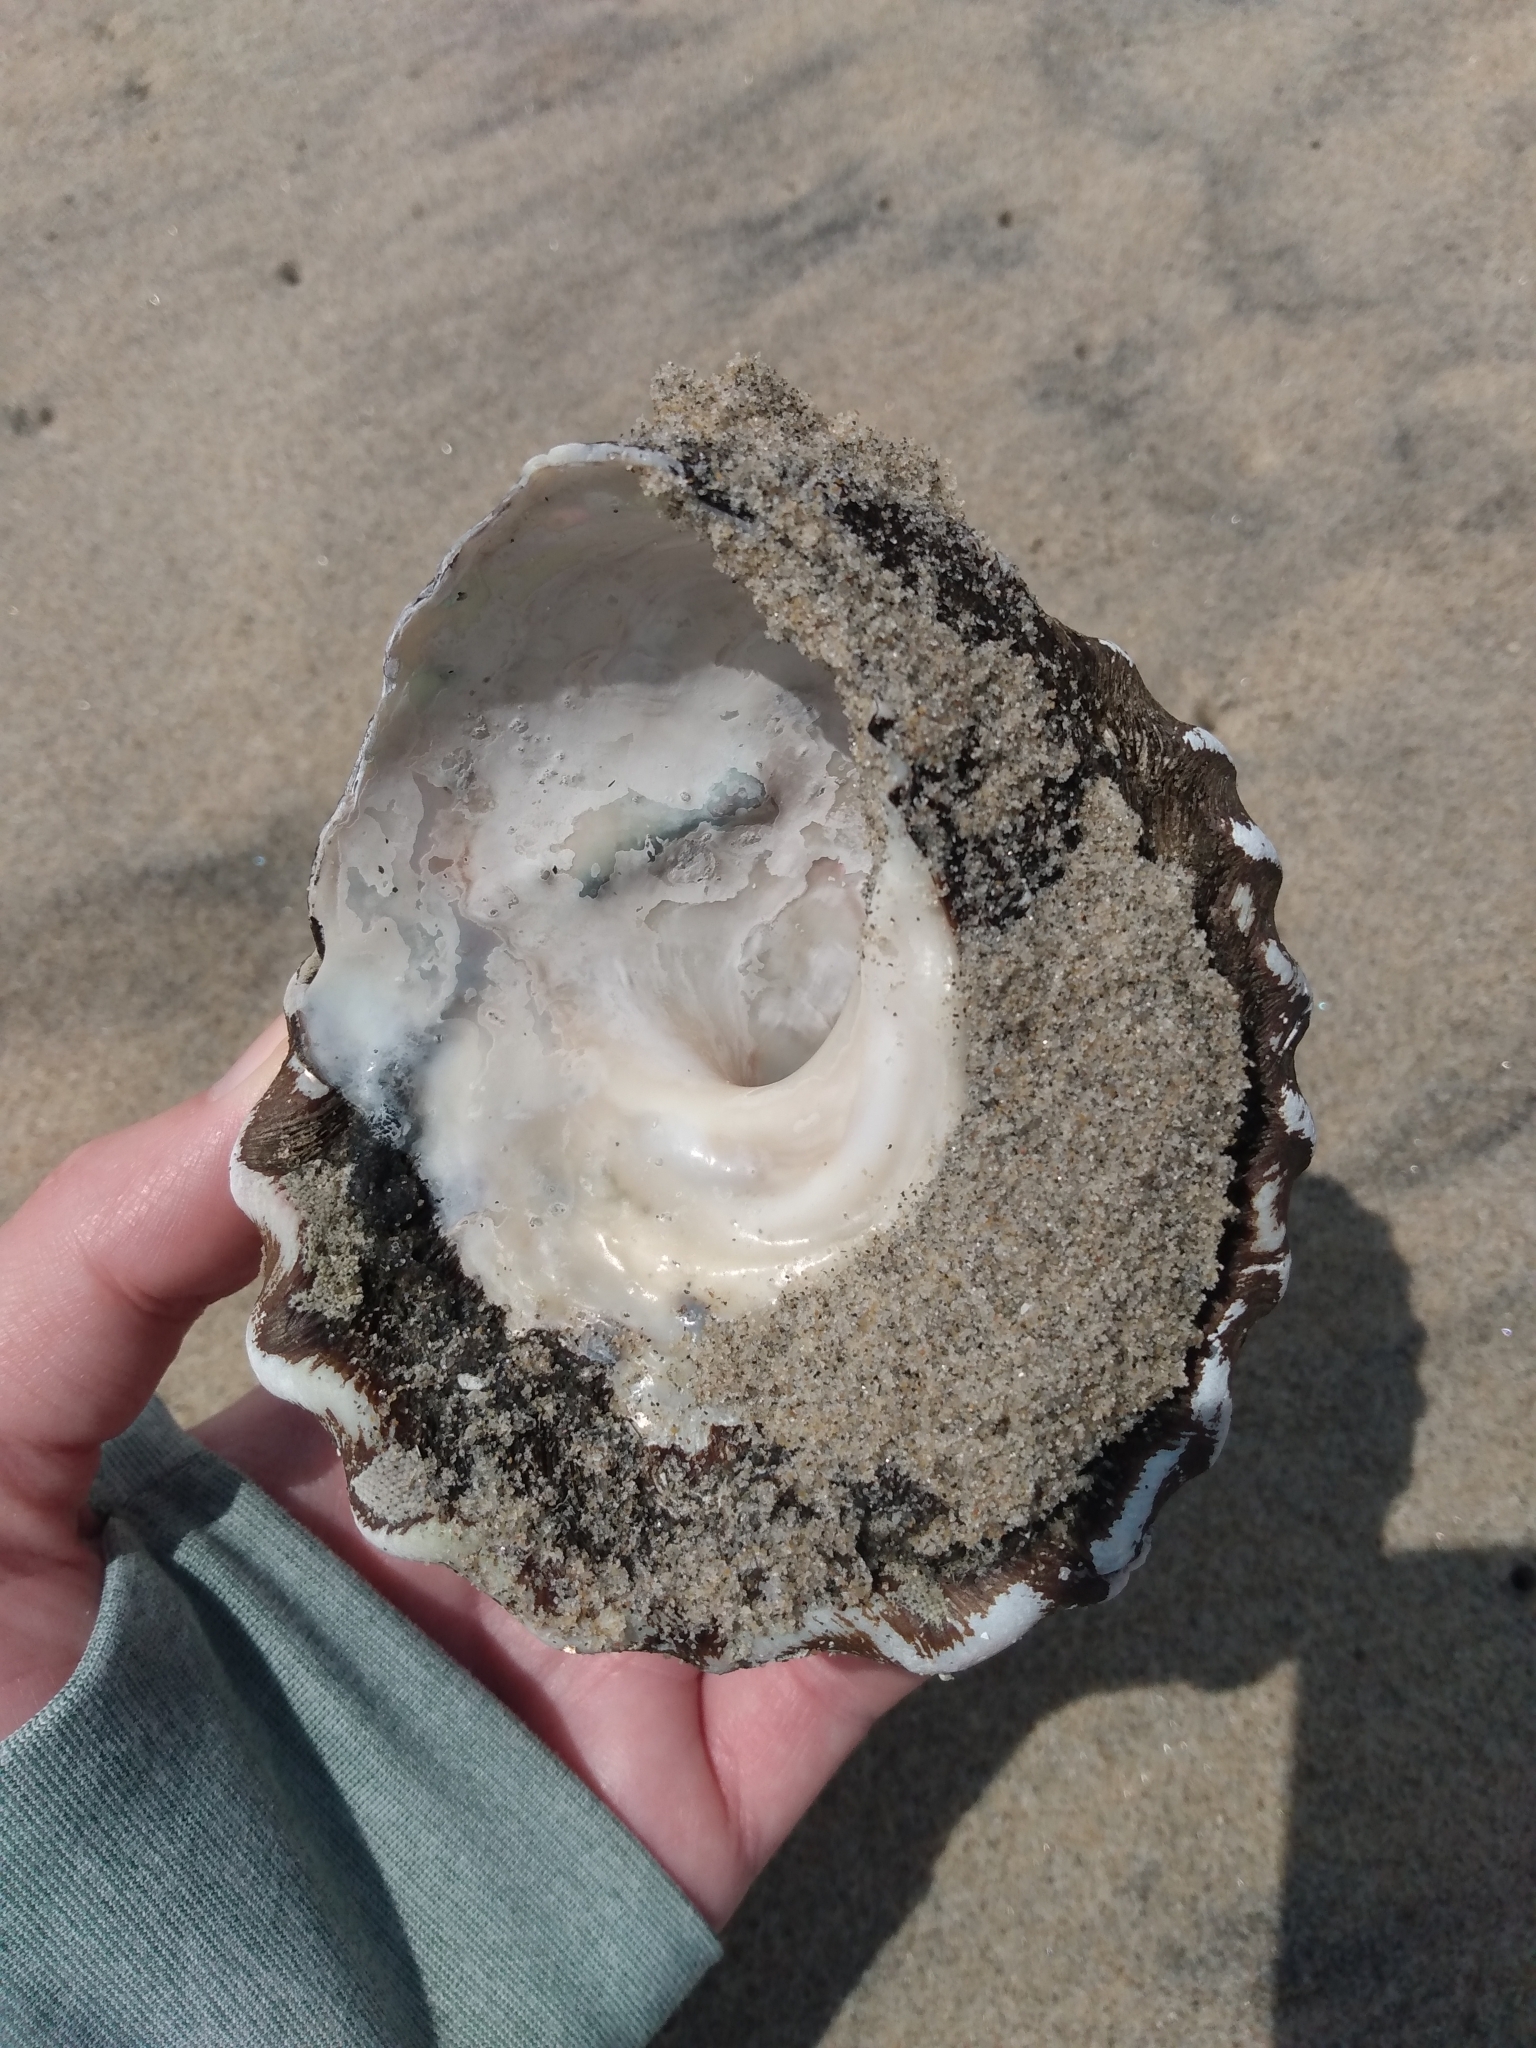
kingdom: Animalia
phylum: Mollusca
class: Gastropoda
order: Trochida
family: Turbinidae
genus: Megastraea
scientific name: Megastraea undosa
